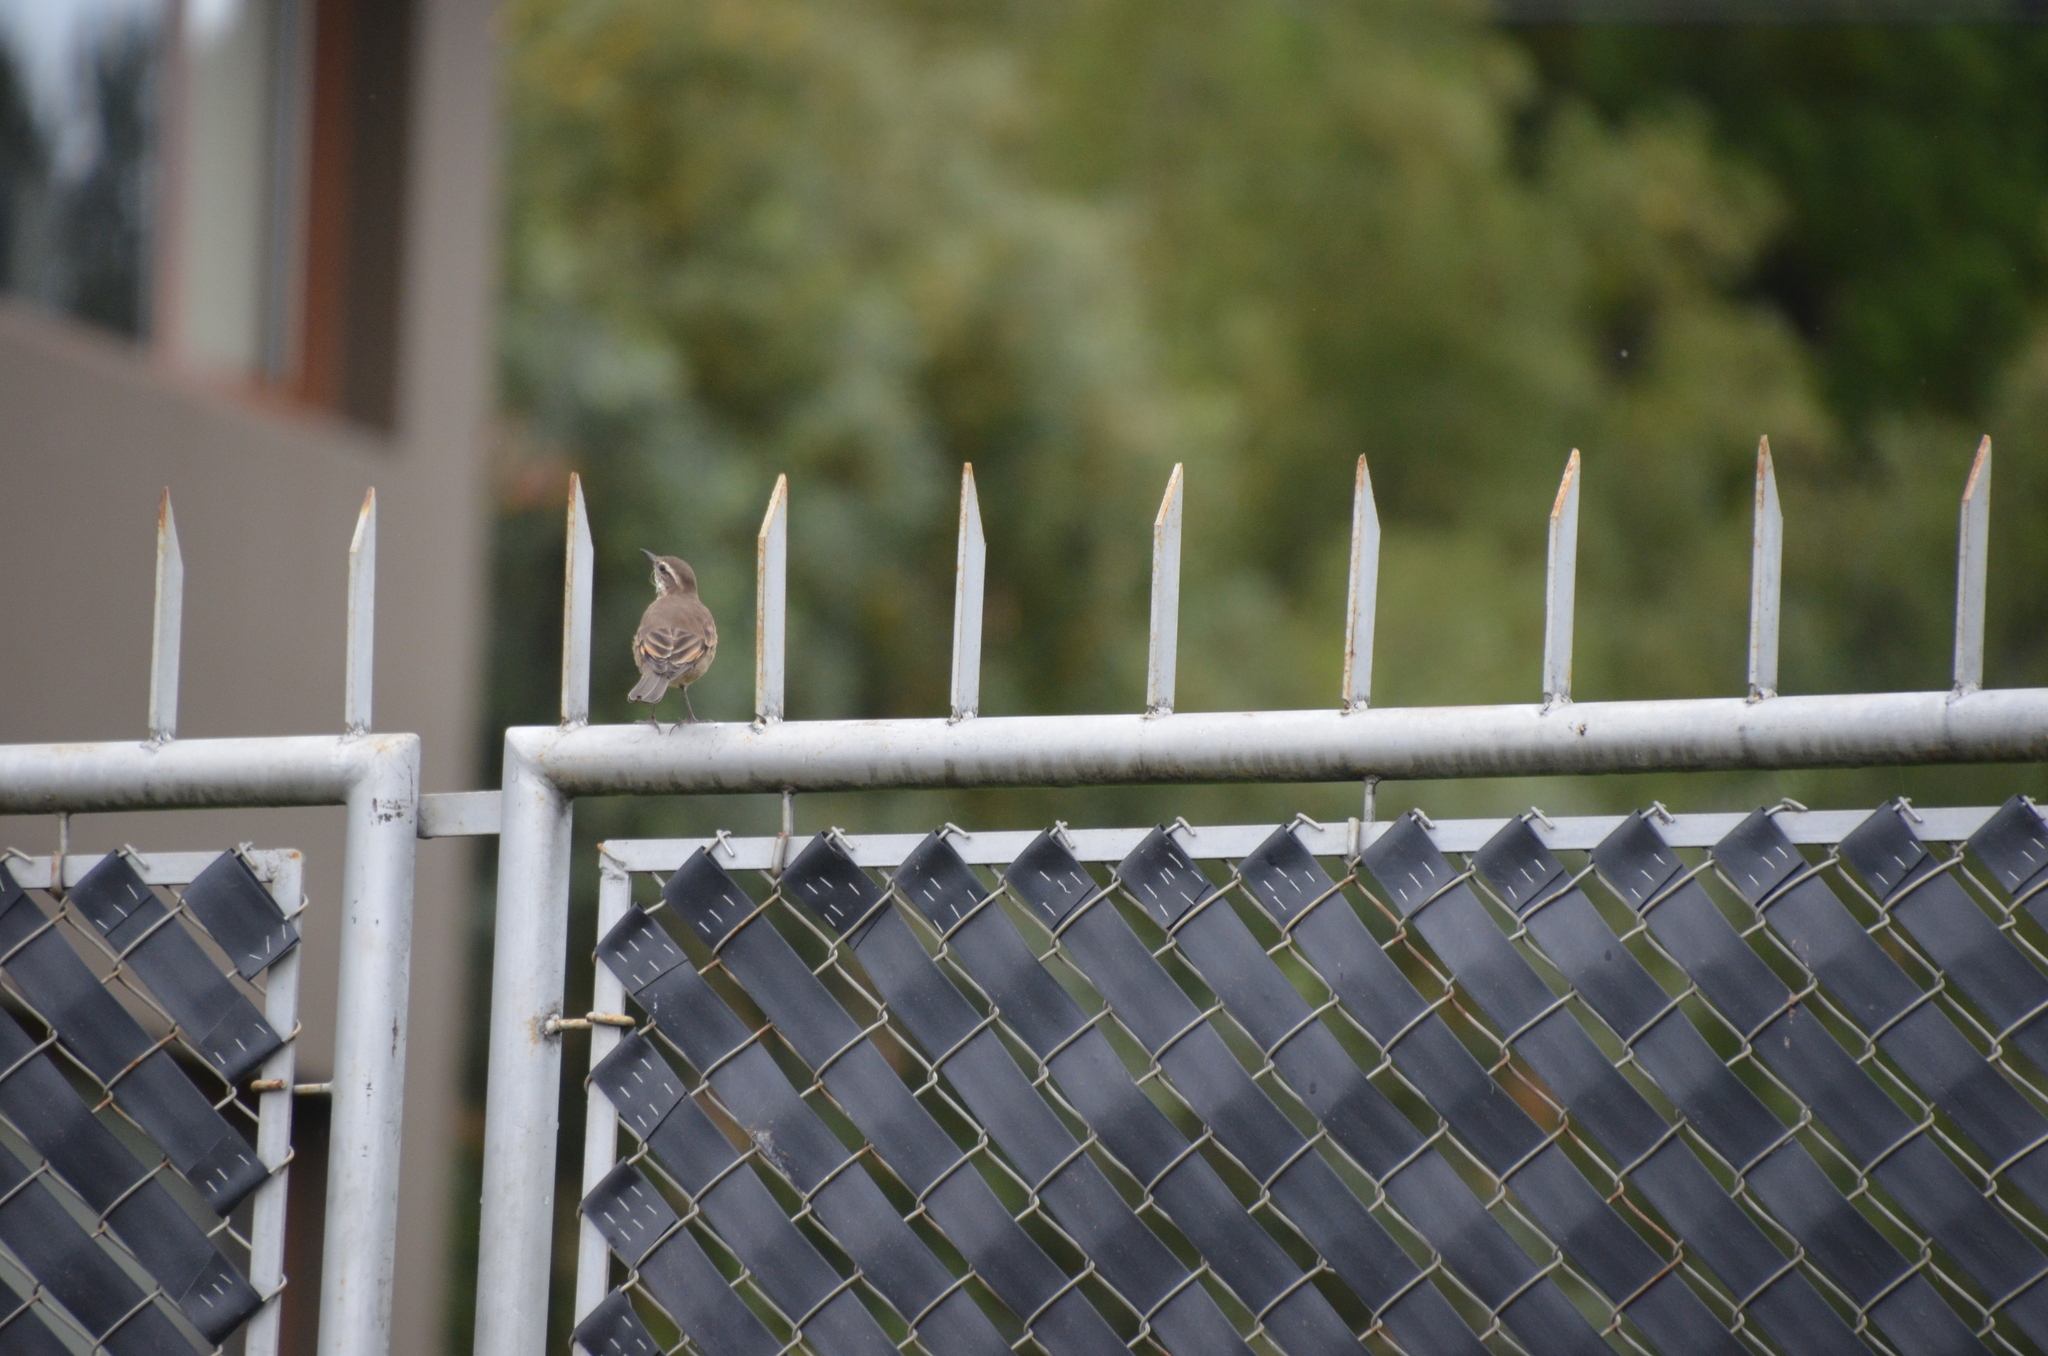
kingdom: Animalia
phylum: Chordata
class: Aves
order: Passeriformes
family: Furnariidae
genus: Cinclodes
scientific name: Cinclodes fuscus
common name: Buff-winged cinclodes
